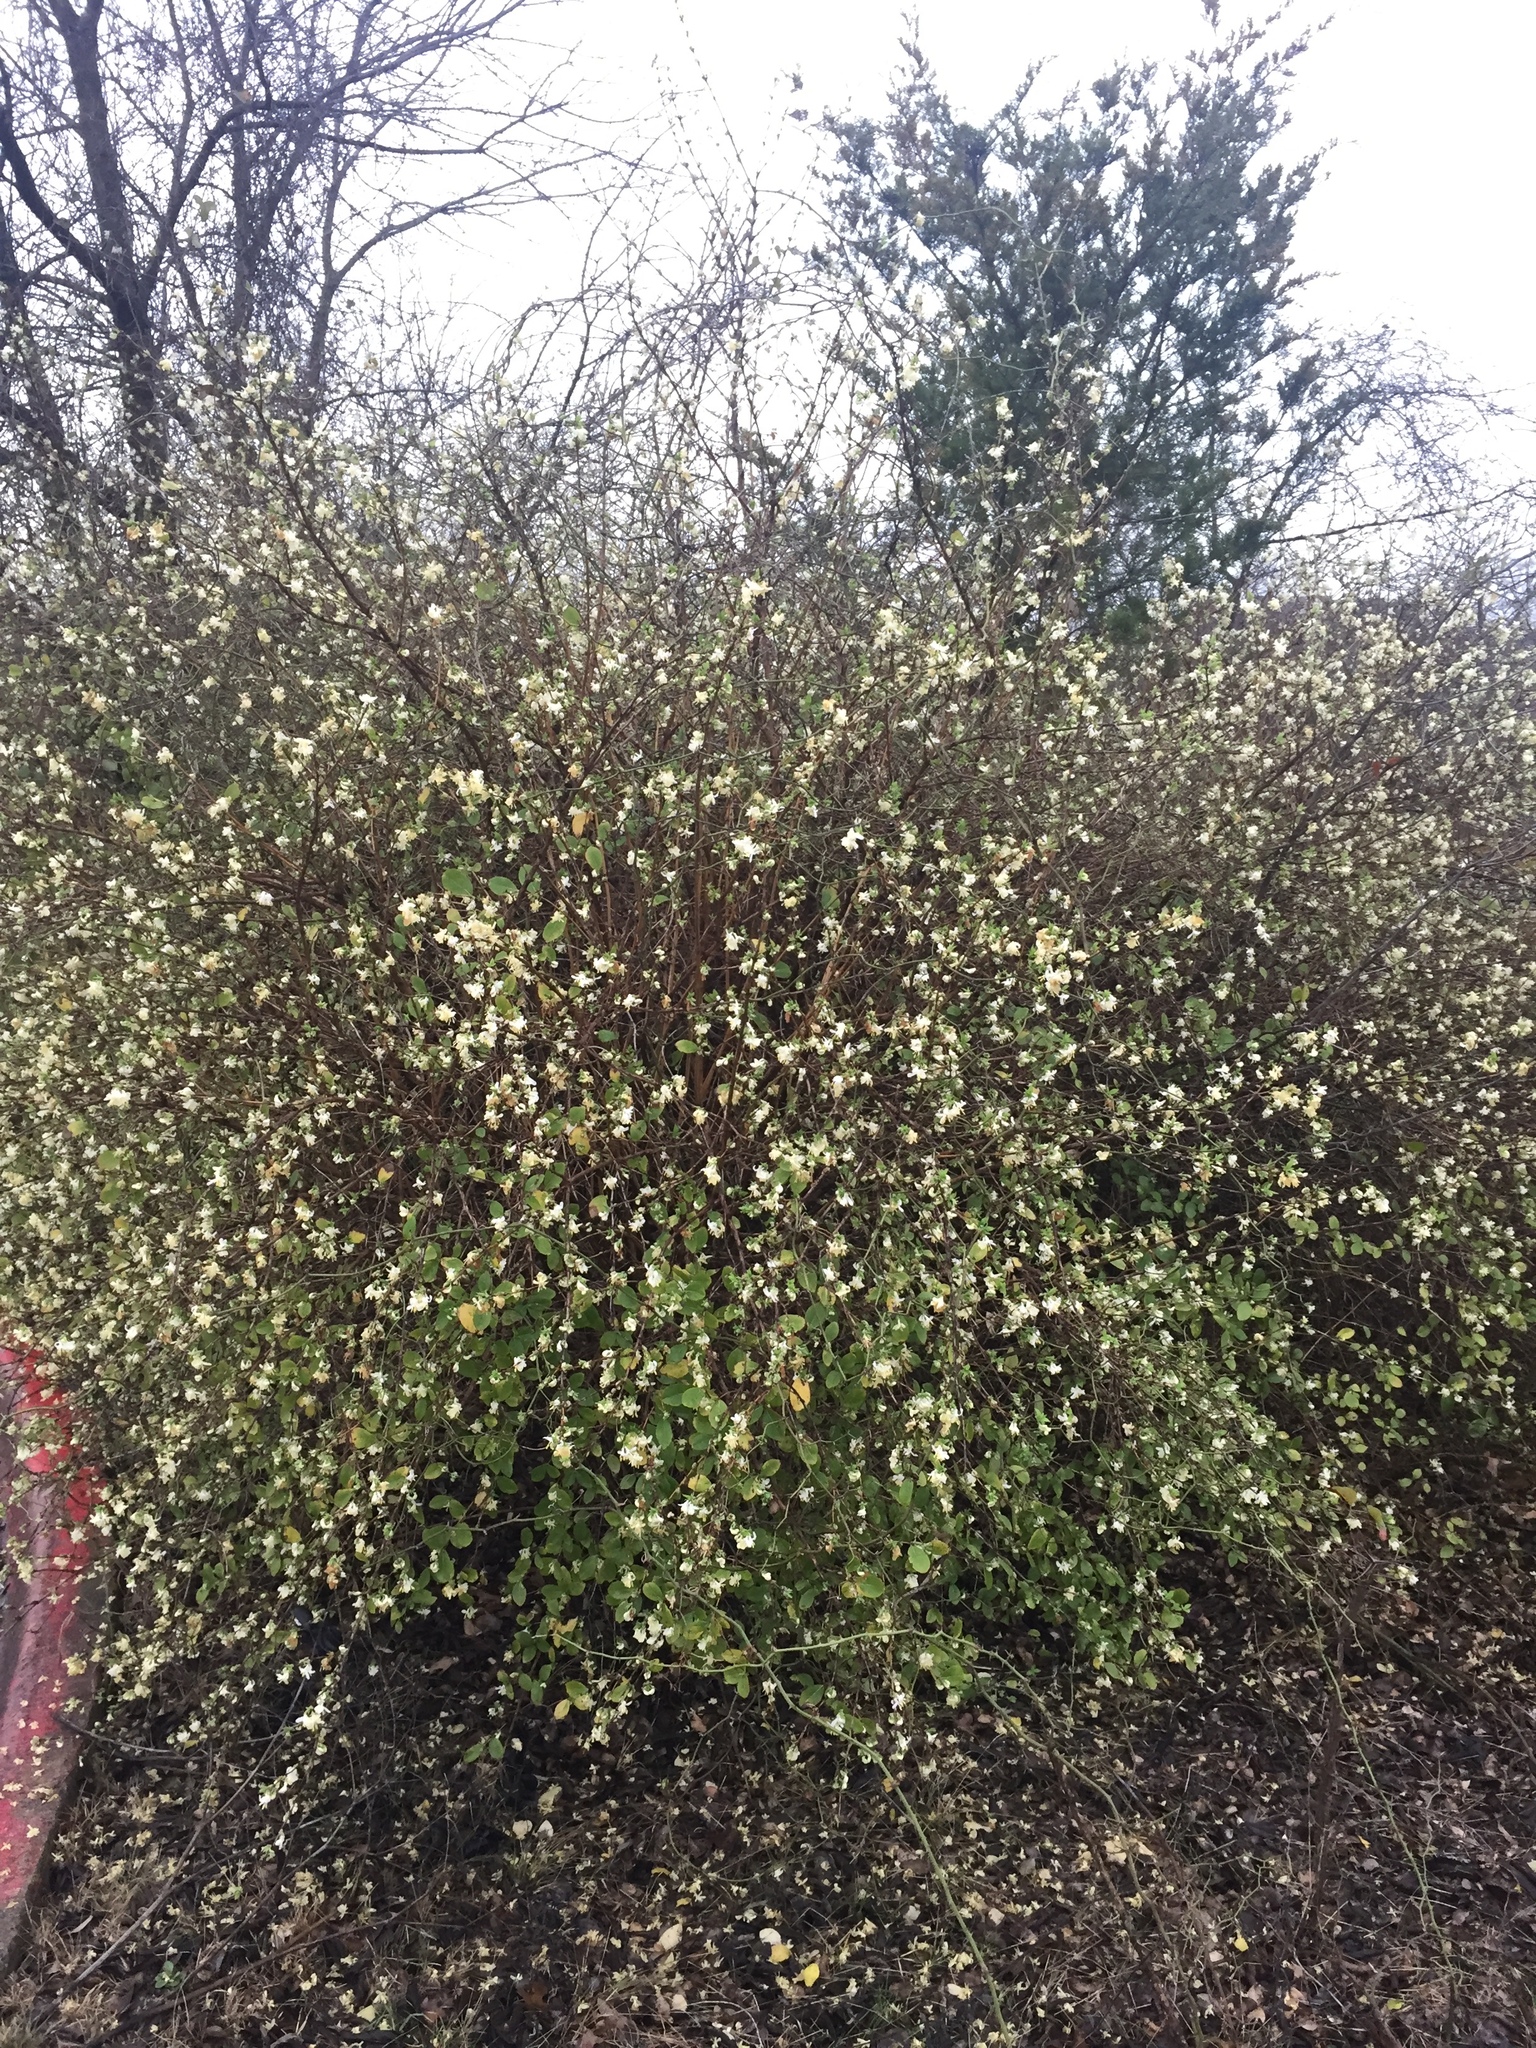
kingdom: Plantae
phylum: Tracheophyta
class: Magnoliopsida
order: Dipsacales
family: Caprifoliaceae
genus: Lonicera
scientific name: Lonicera fragrantissima
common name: Fragrant honeysuckle
